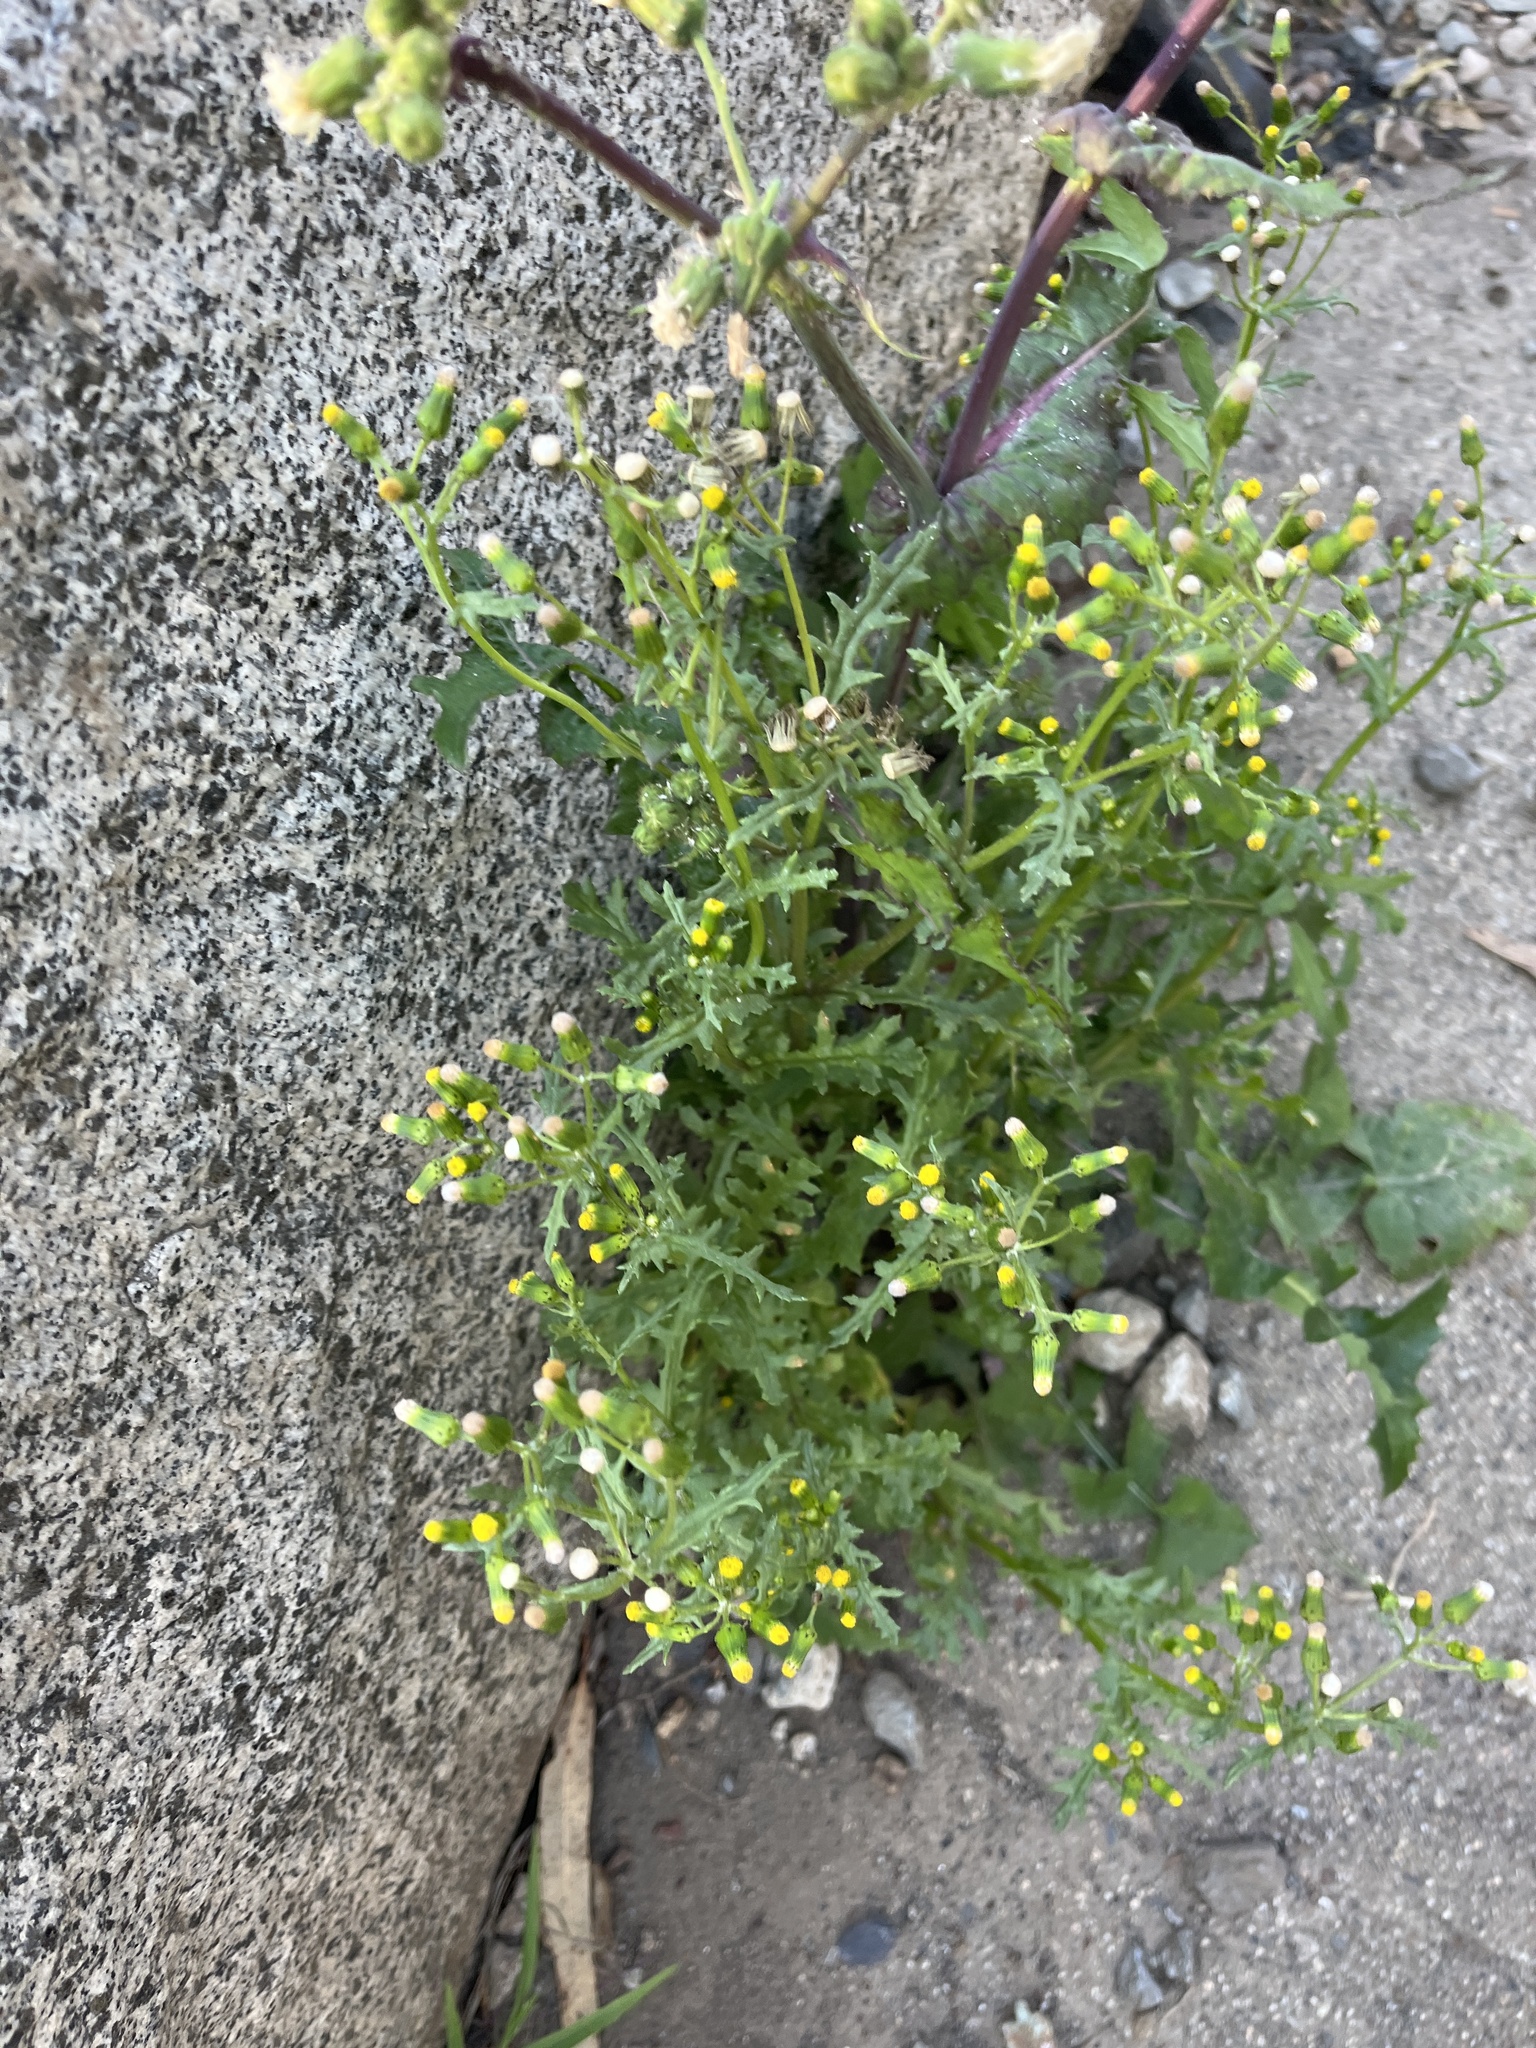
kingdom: Plantae
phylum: Tracheophyta
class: Magnoliopsida
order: Asterales
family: Asteraceae
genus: Senecio
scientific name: Senecio vulgaris
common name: Old-man-in-the-spring
